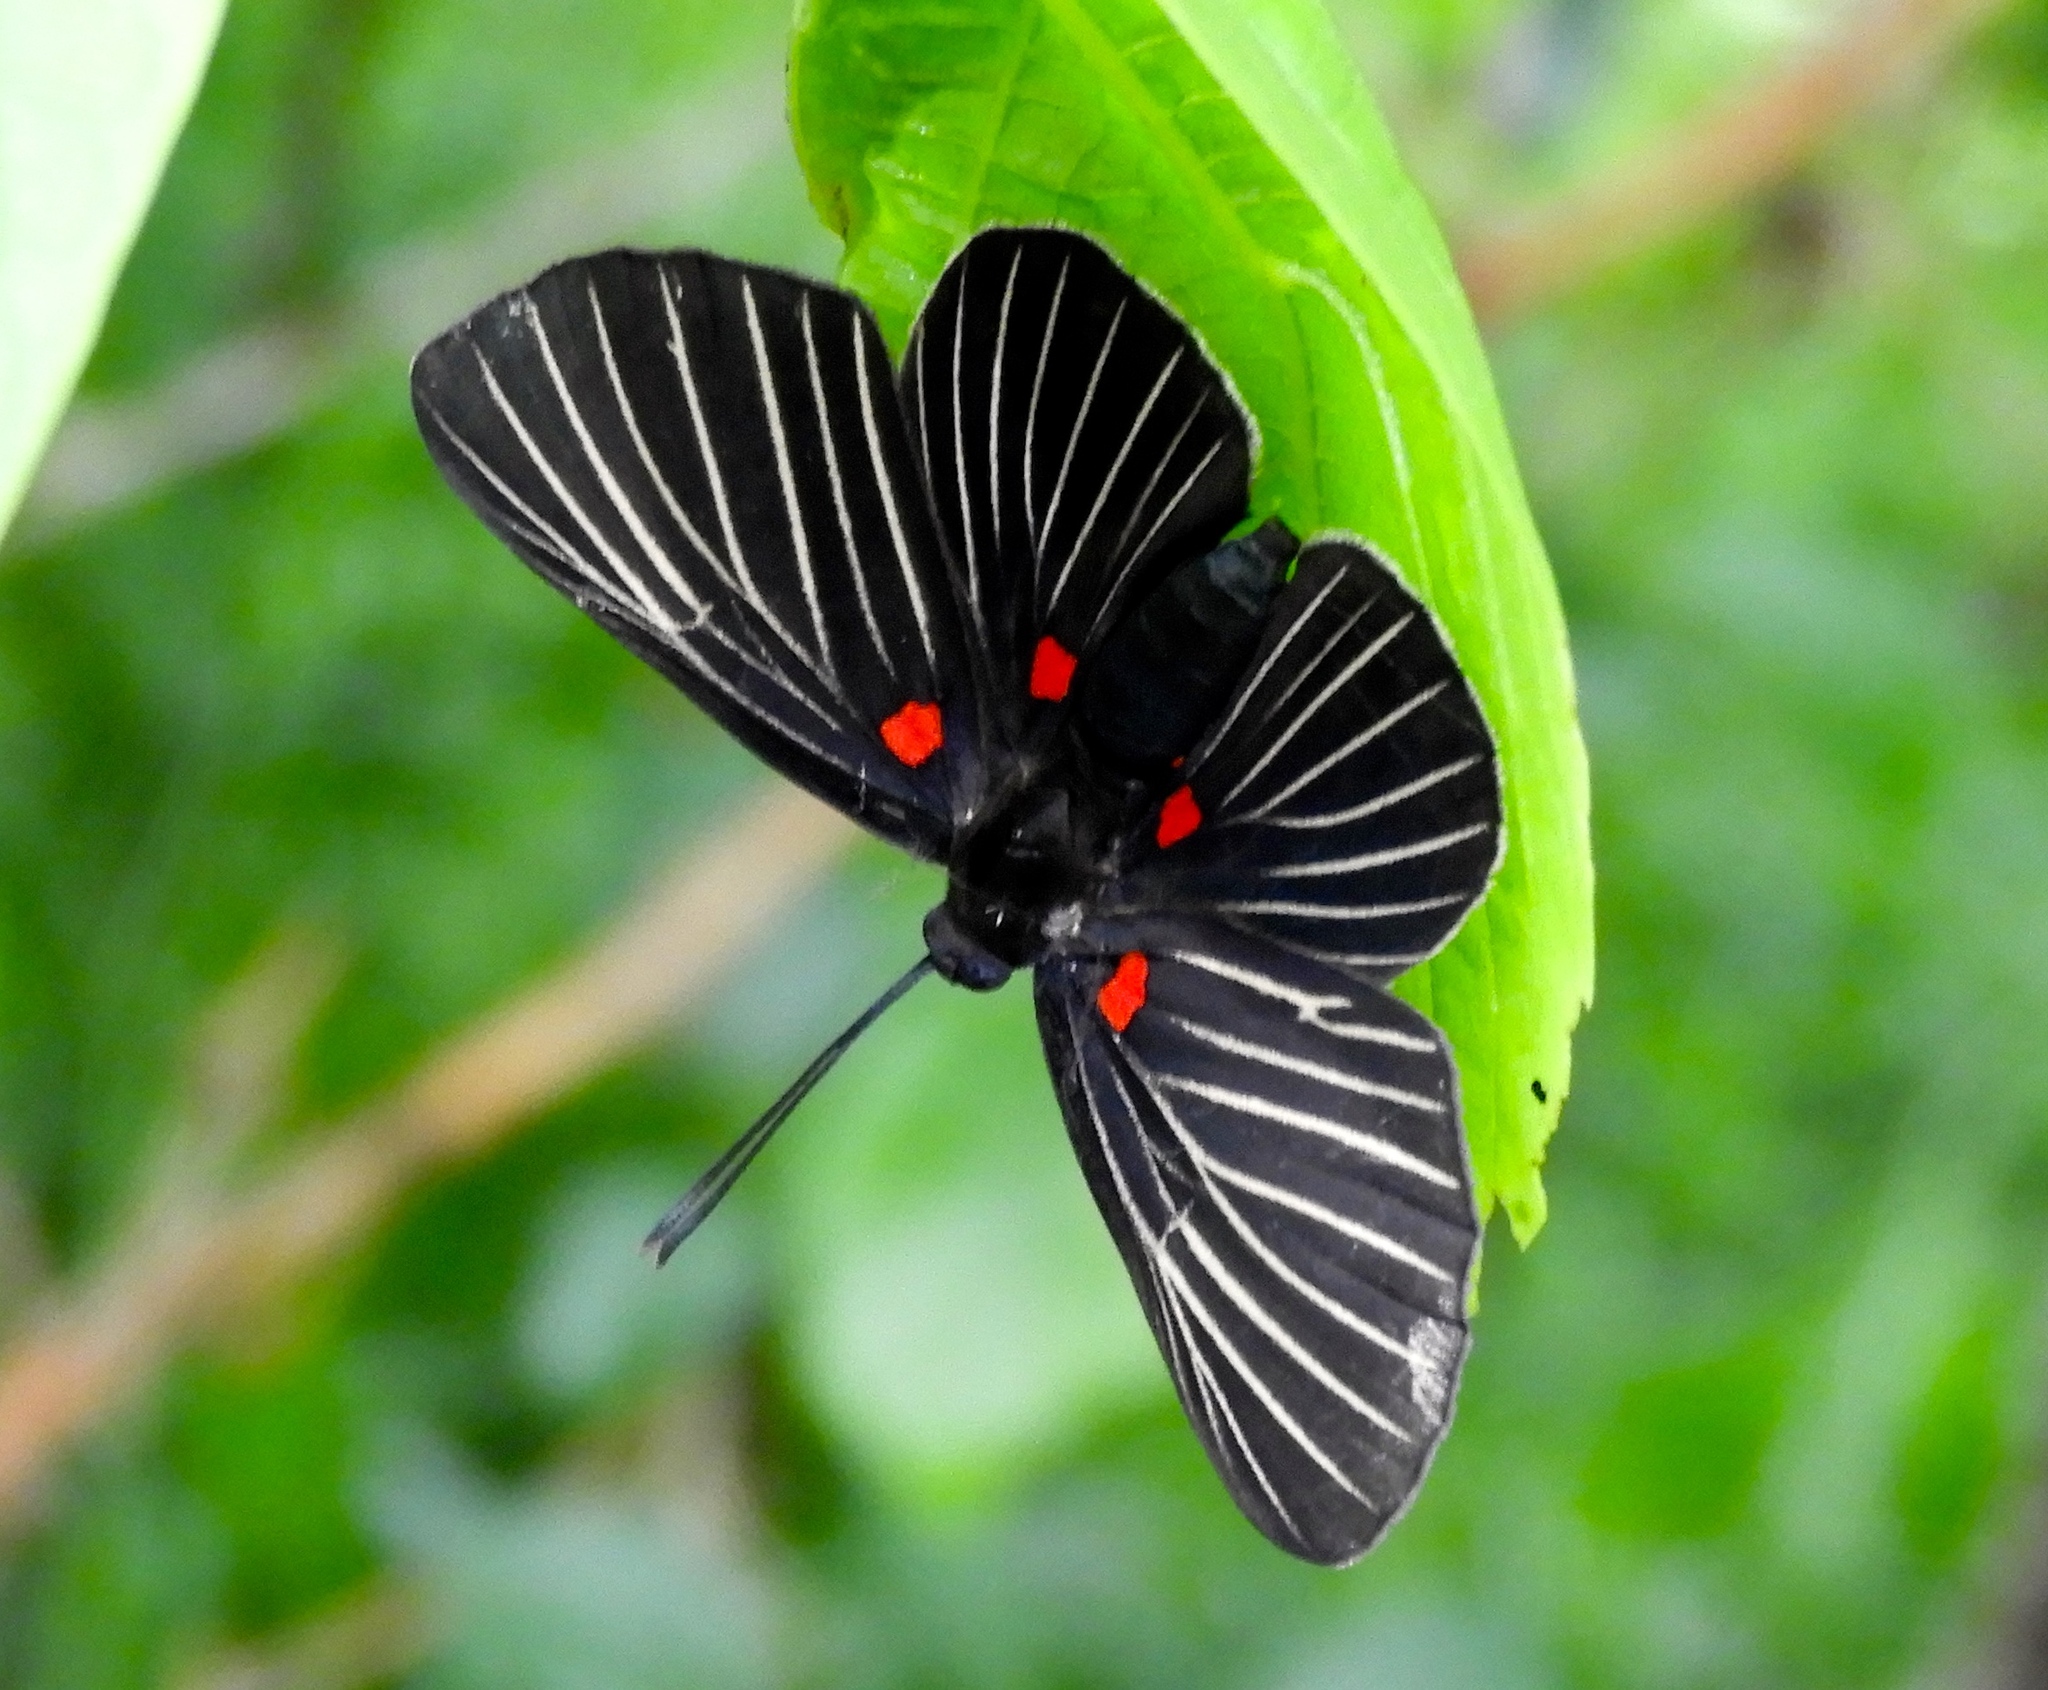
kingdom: Animalia
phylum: Arthropoda
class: Insecta
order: Lepidoptera
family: Lycaenidae
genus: Melanis
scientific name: Melanis
